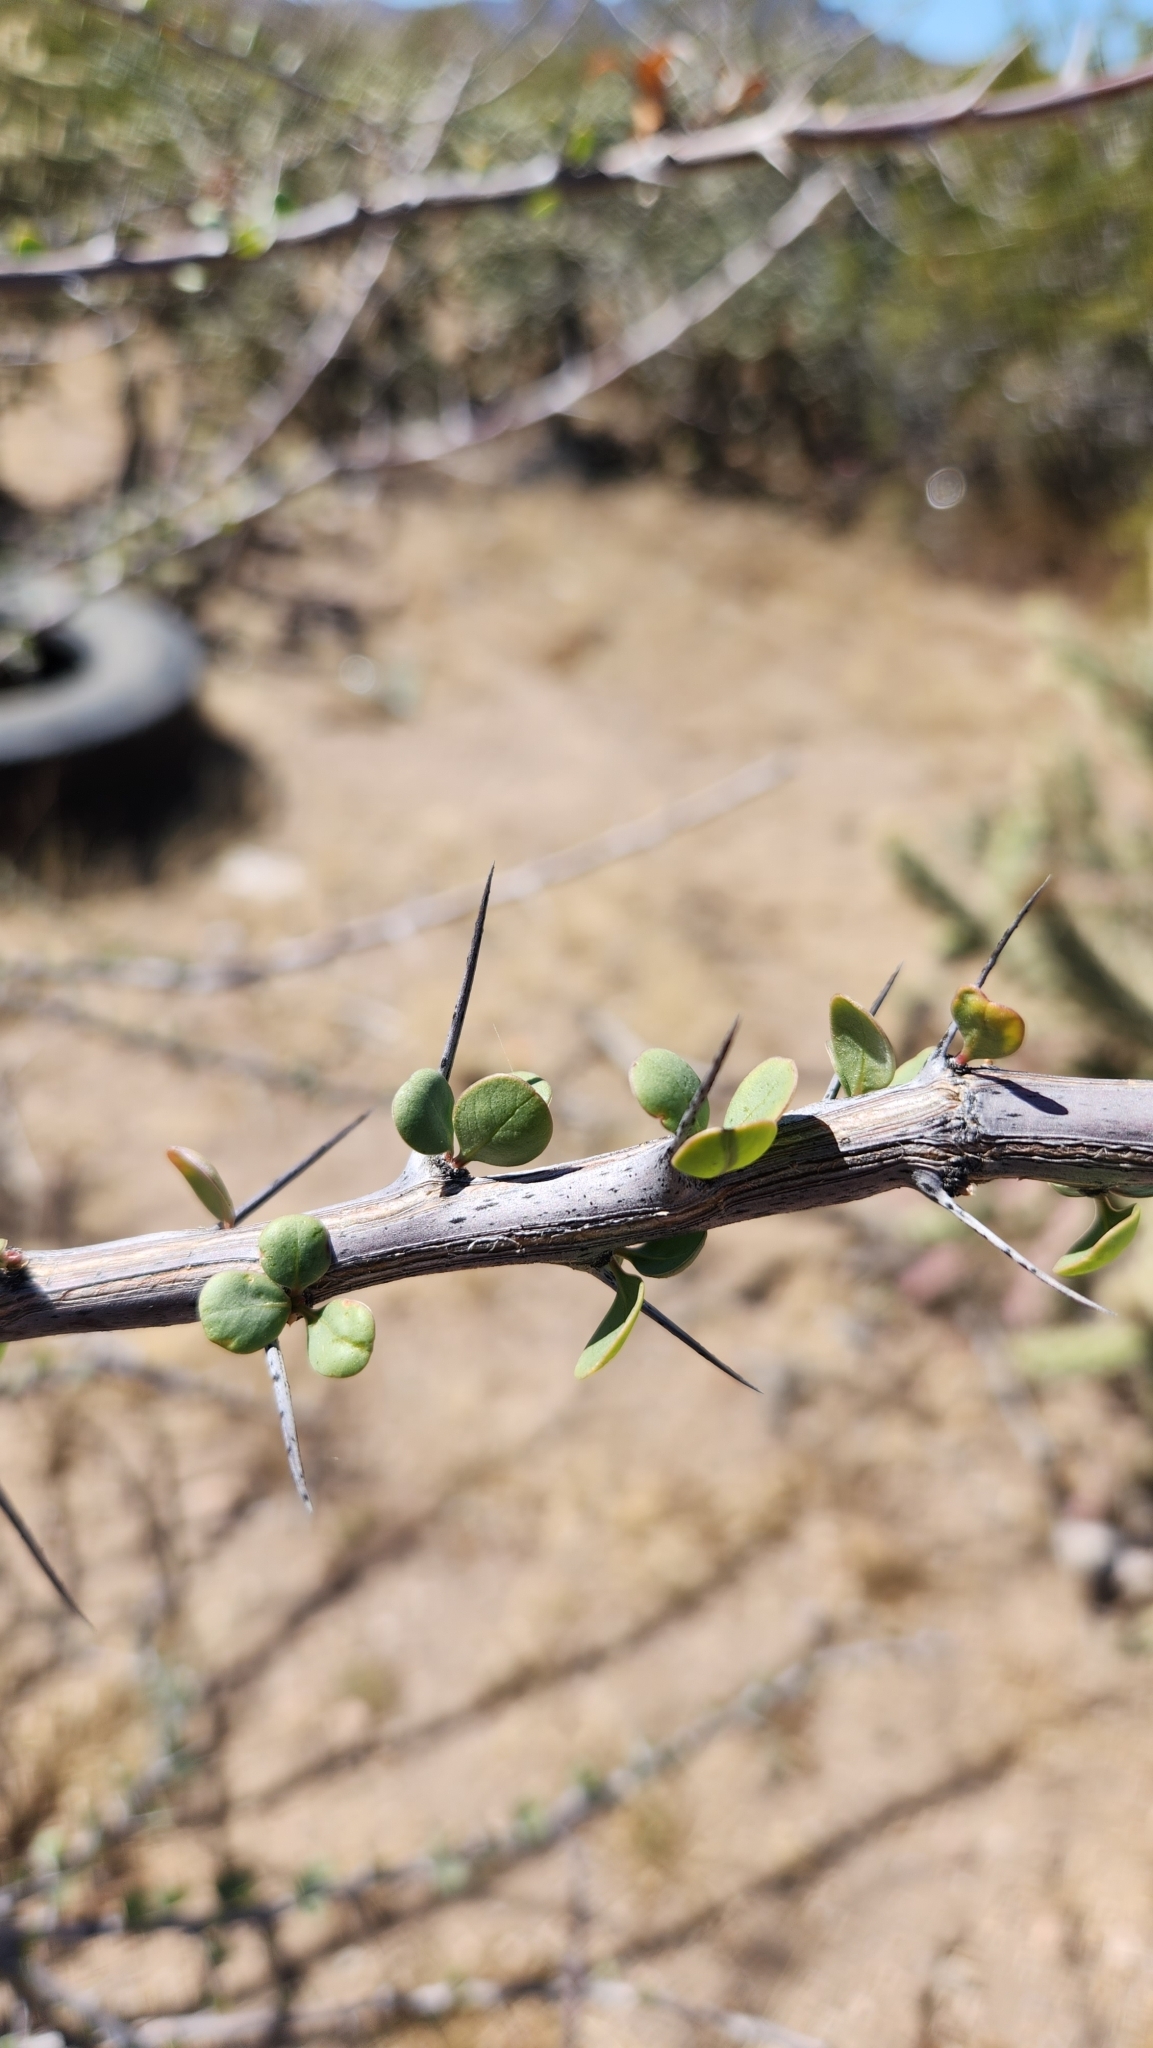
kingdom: Plantae
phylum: Tracheophyta
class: Magnoliopsida
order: Ericales
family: Fouquieriaceae
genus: Fouquieria
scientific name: Fouquieria diguetii
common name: Adam's tree
